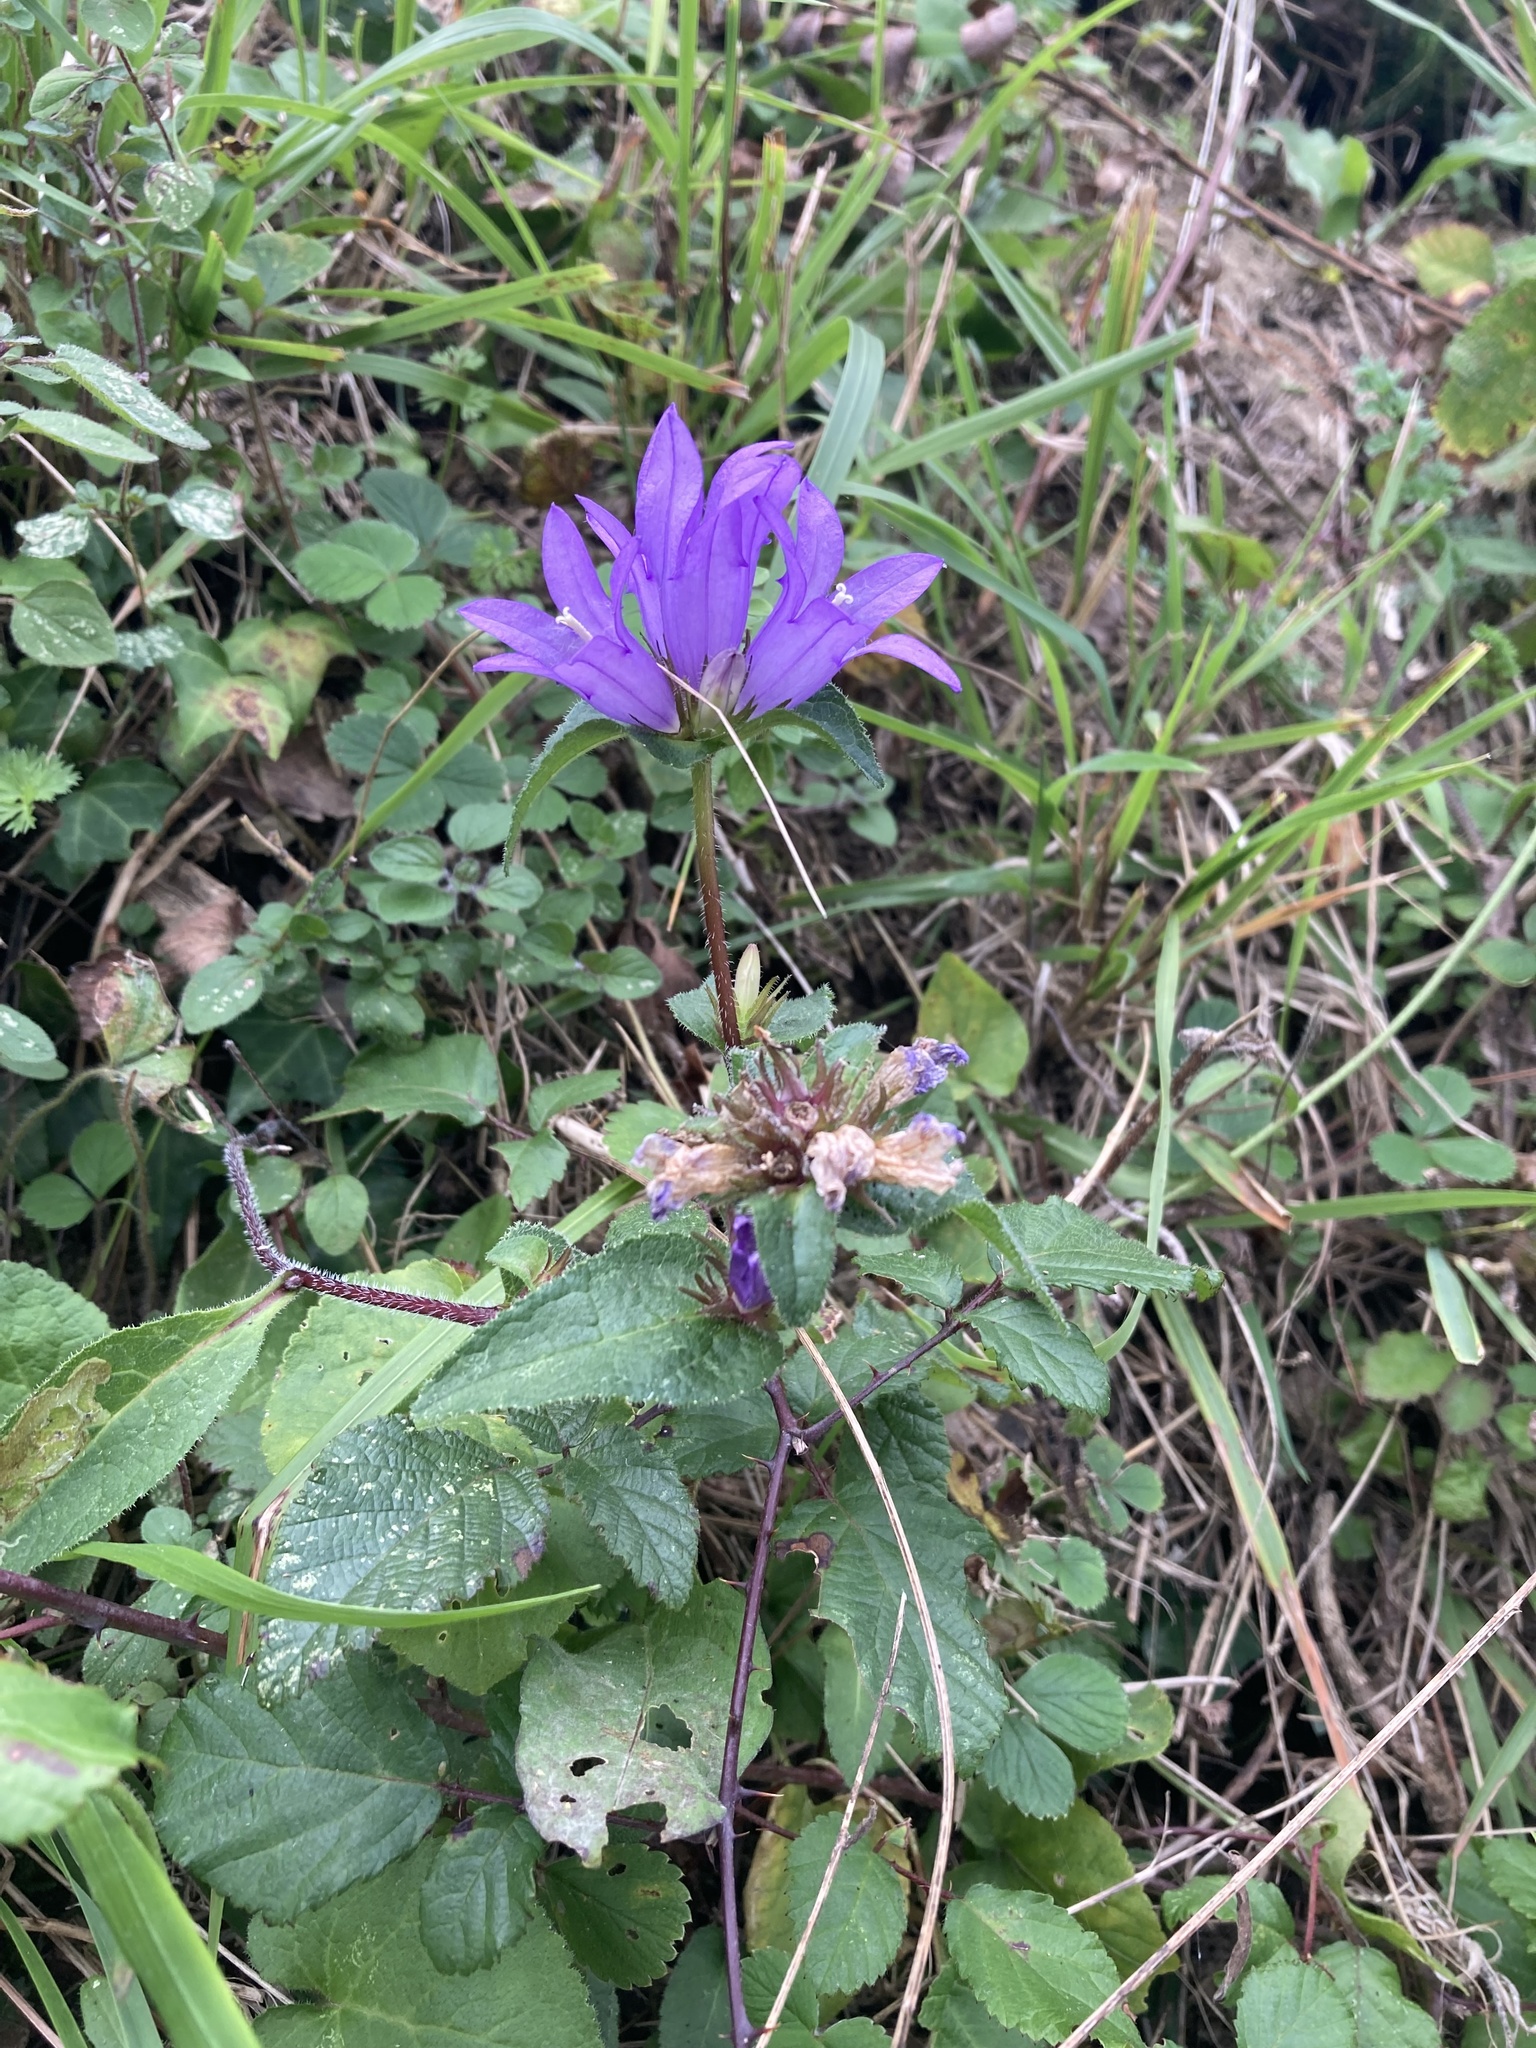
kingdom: Plantae
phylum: Tracheophyta
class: Magnoliopsida
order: Asterales
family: Campanulaceae
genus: Campanula
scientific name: Campanula glomerata
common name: Clustered bellflower
